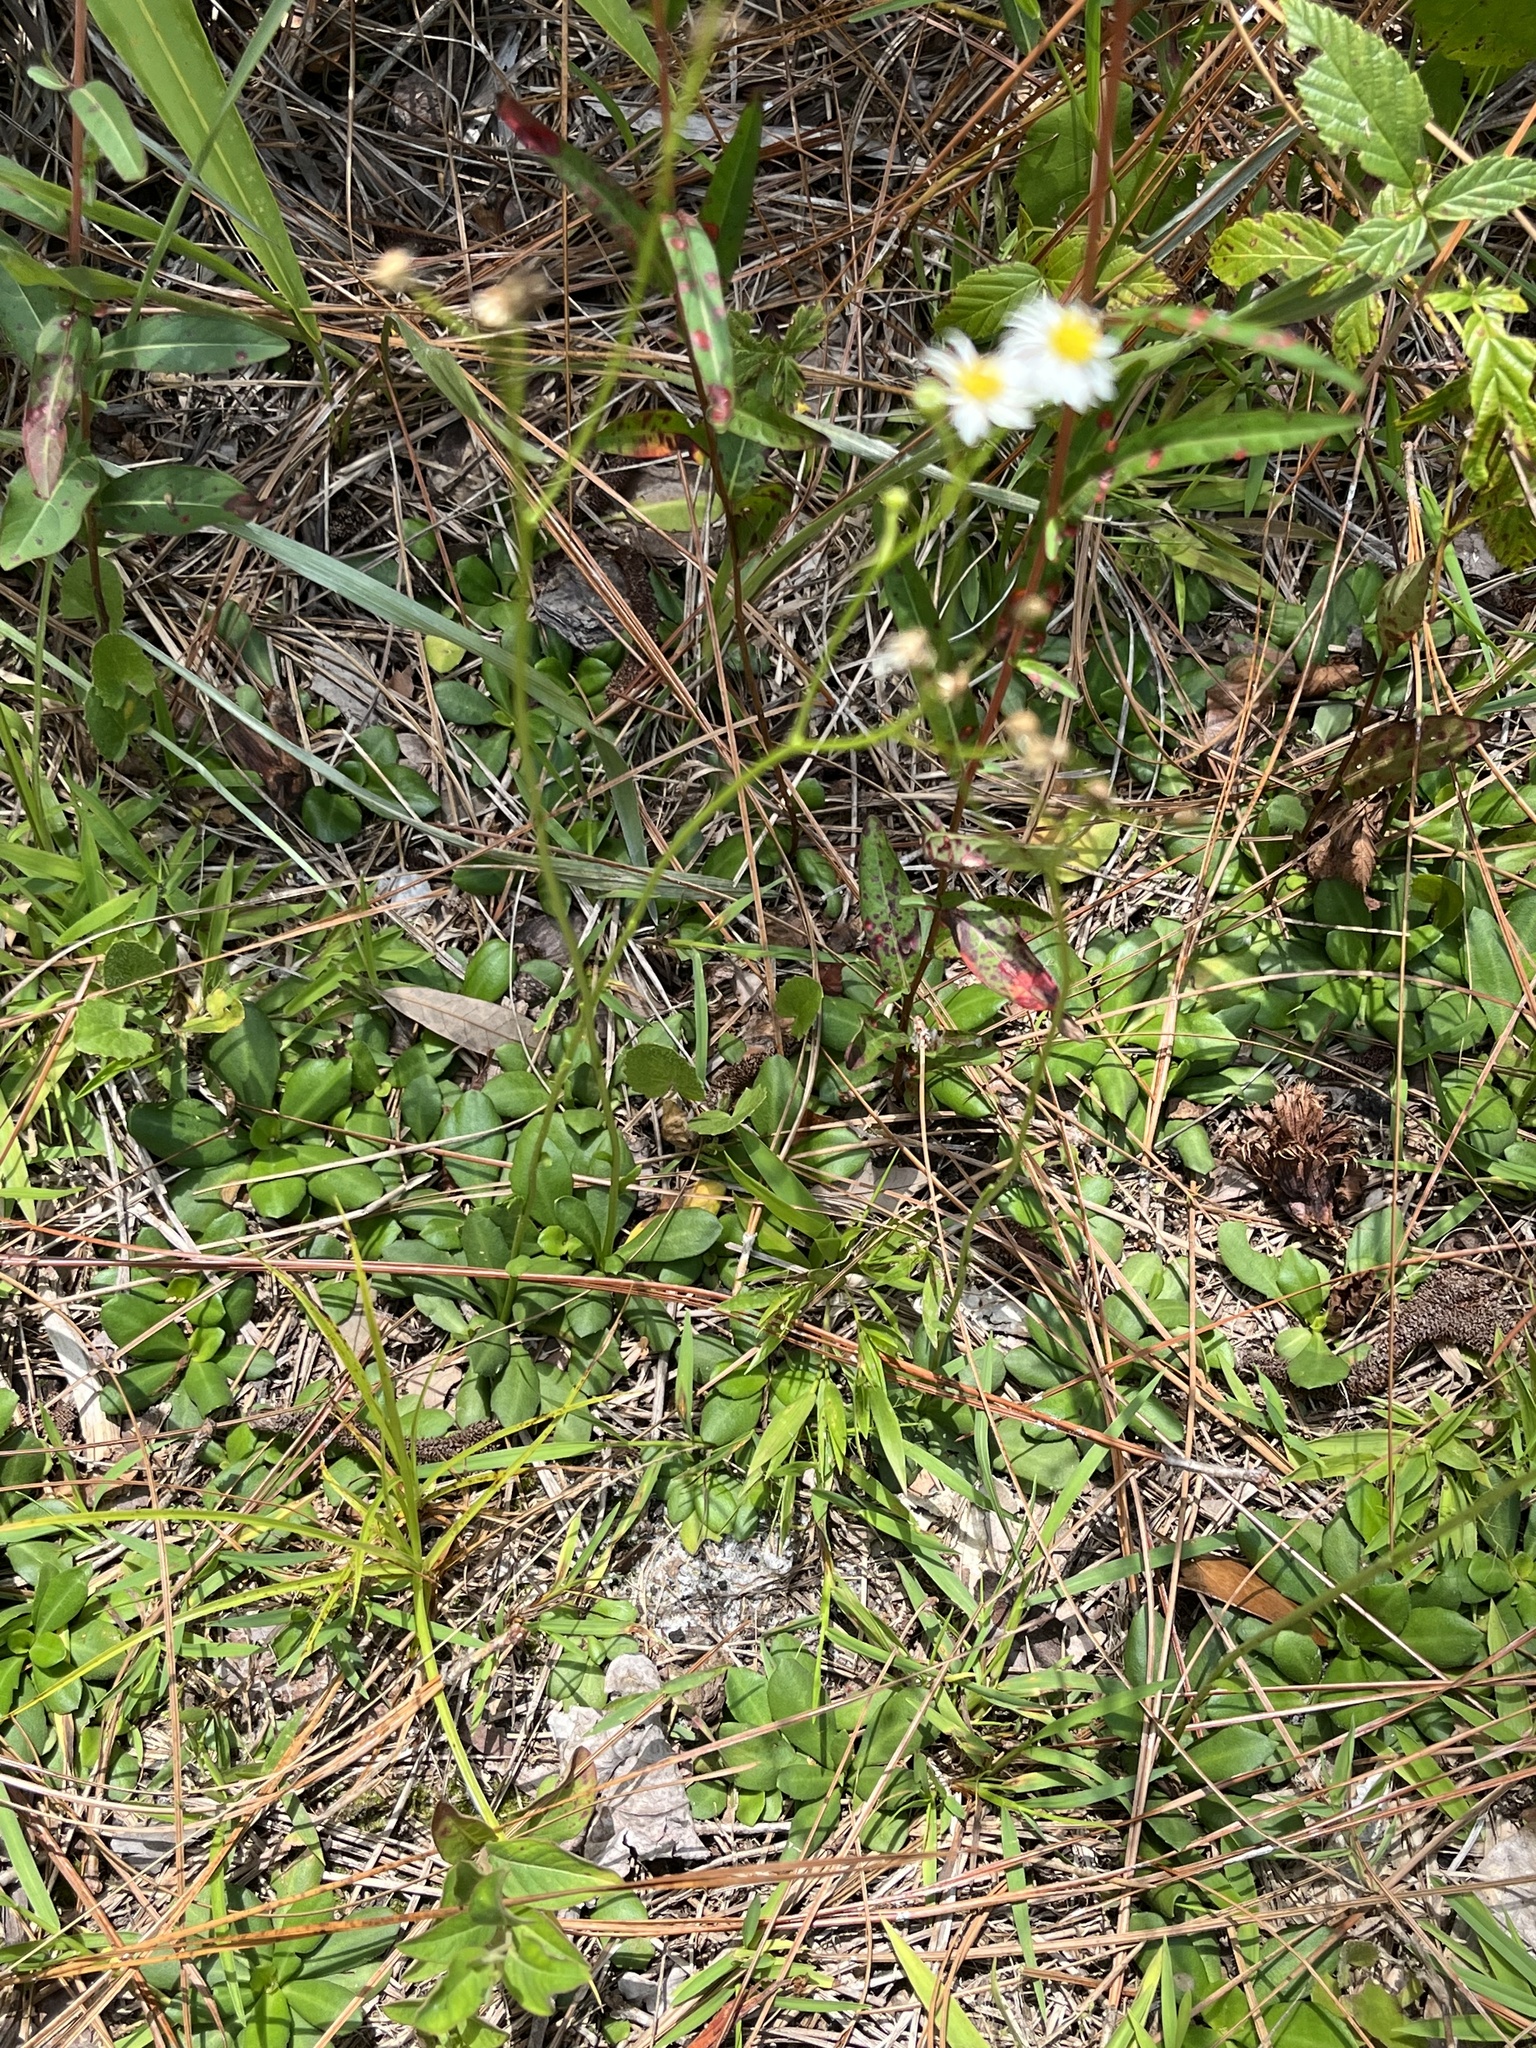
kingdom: Plantae
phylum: Tracheophyta
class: Magnoliopsida
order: Asterales
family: Asteraceae
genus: Erigeron
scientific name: Erigeron vernus
